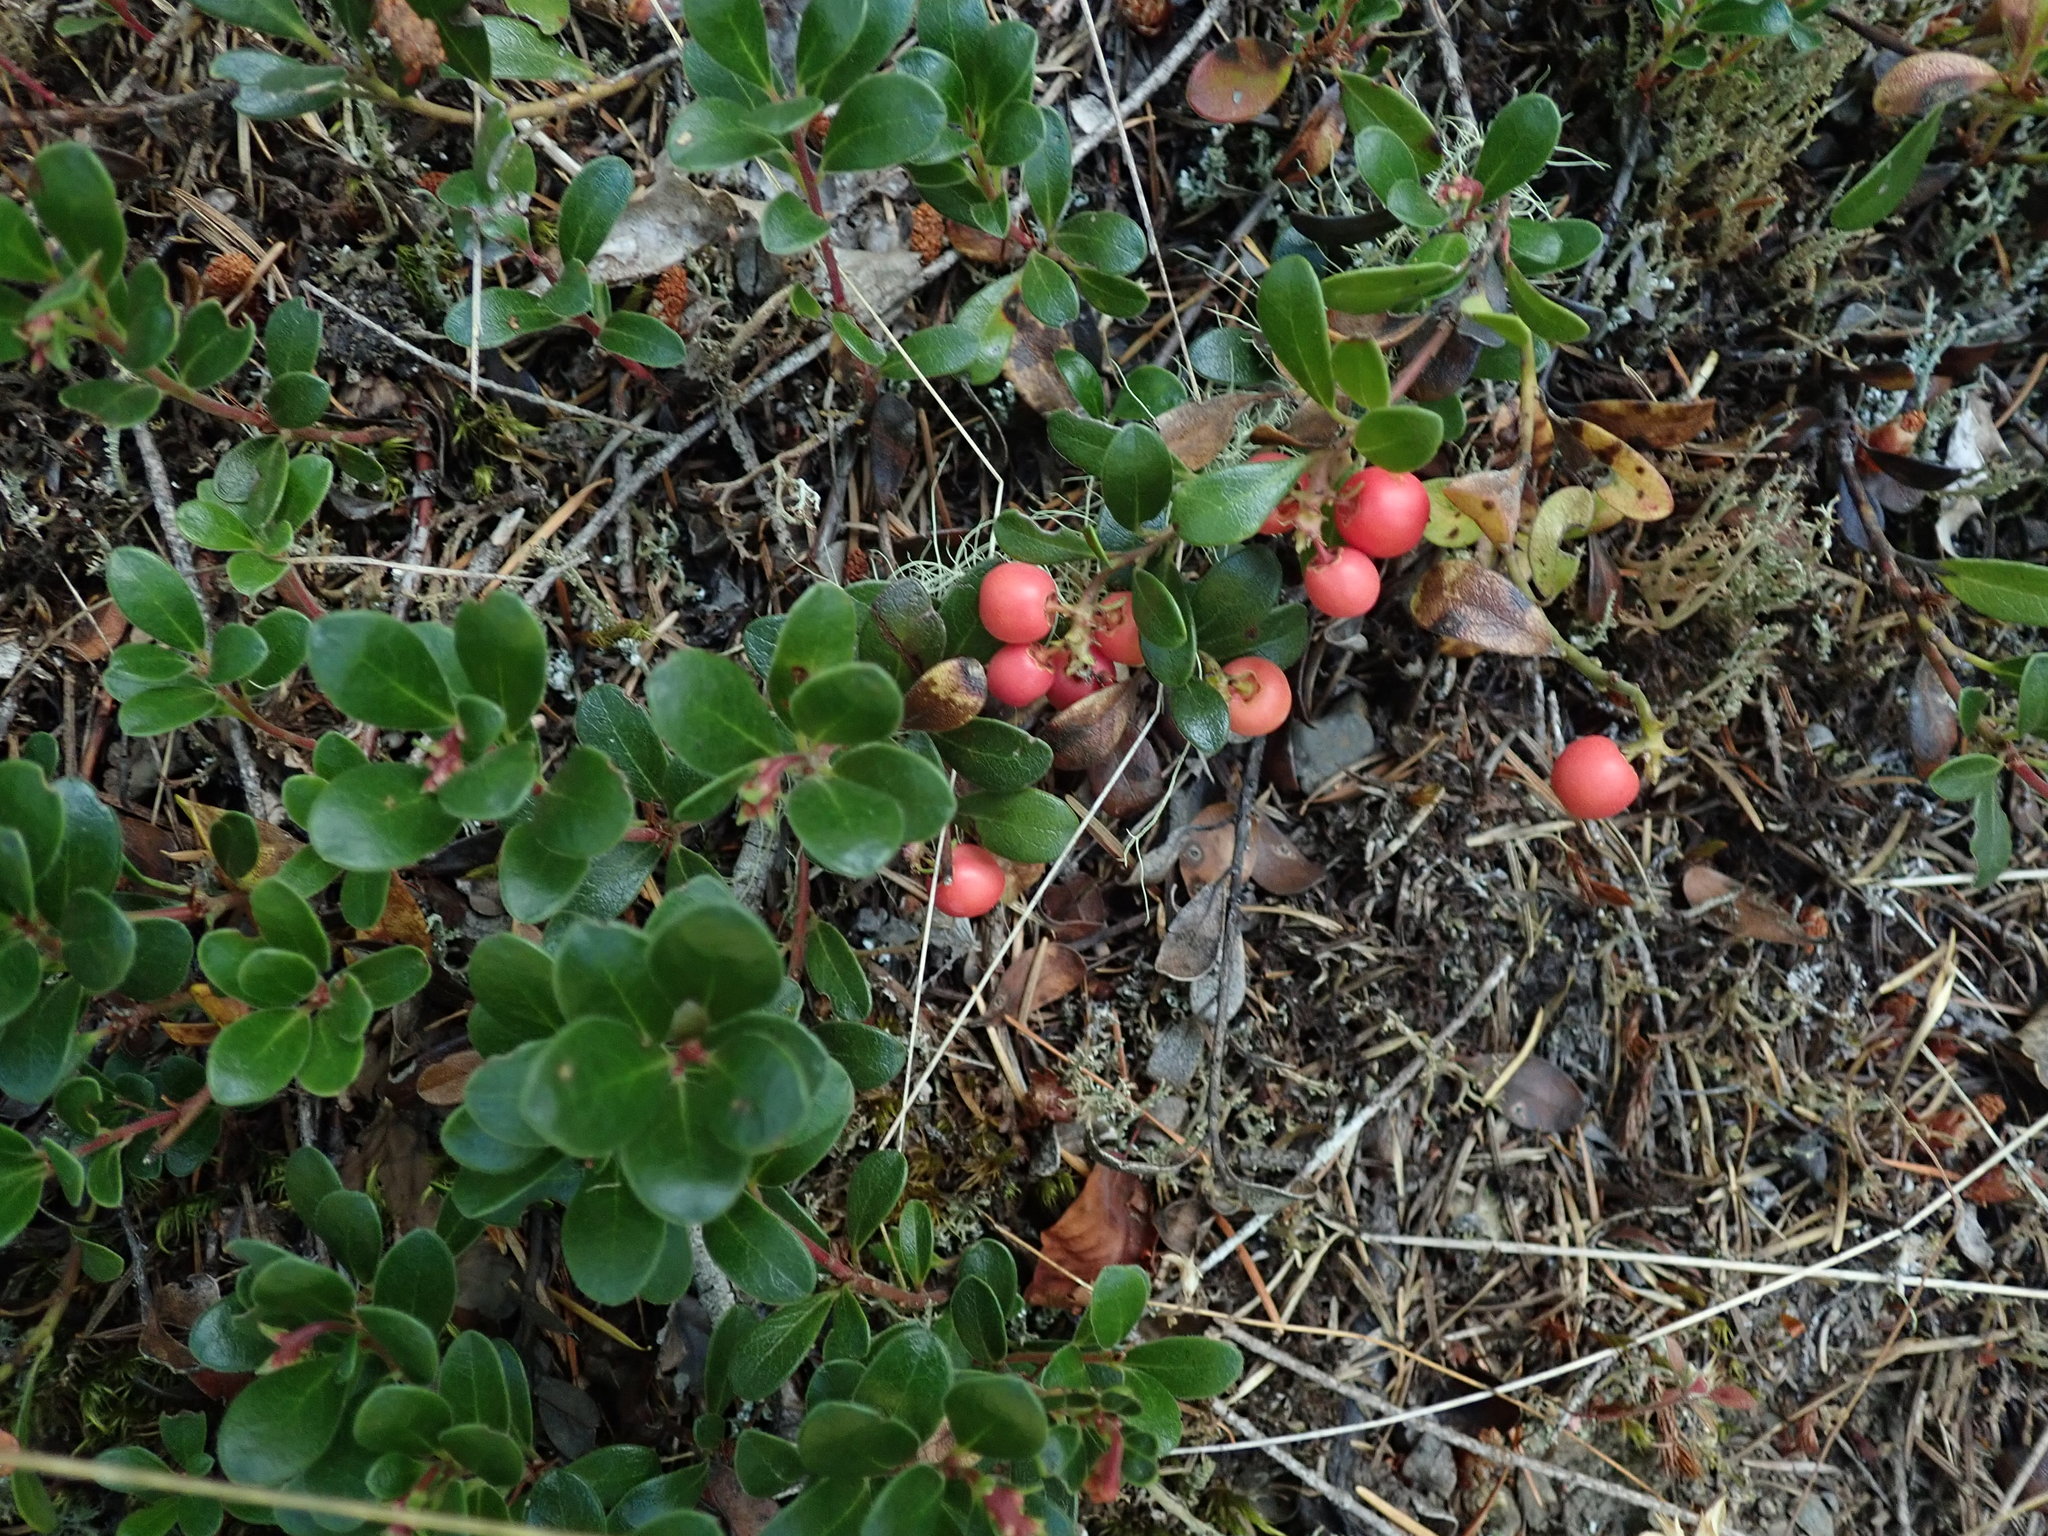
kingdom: Plantae
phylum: Tracheophyta
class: Magnoliopsida
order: Ericales
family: Ericaceae
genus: Arctostaphylos
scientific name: Arctostaphylos uva-ursi
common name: Bearberry
